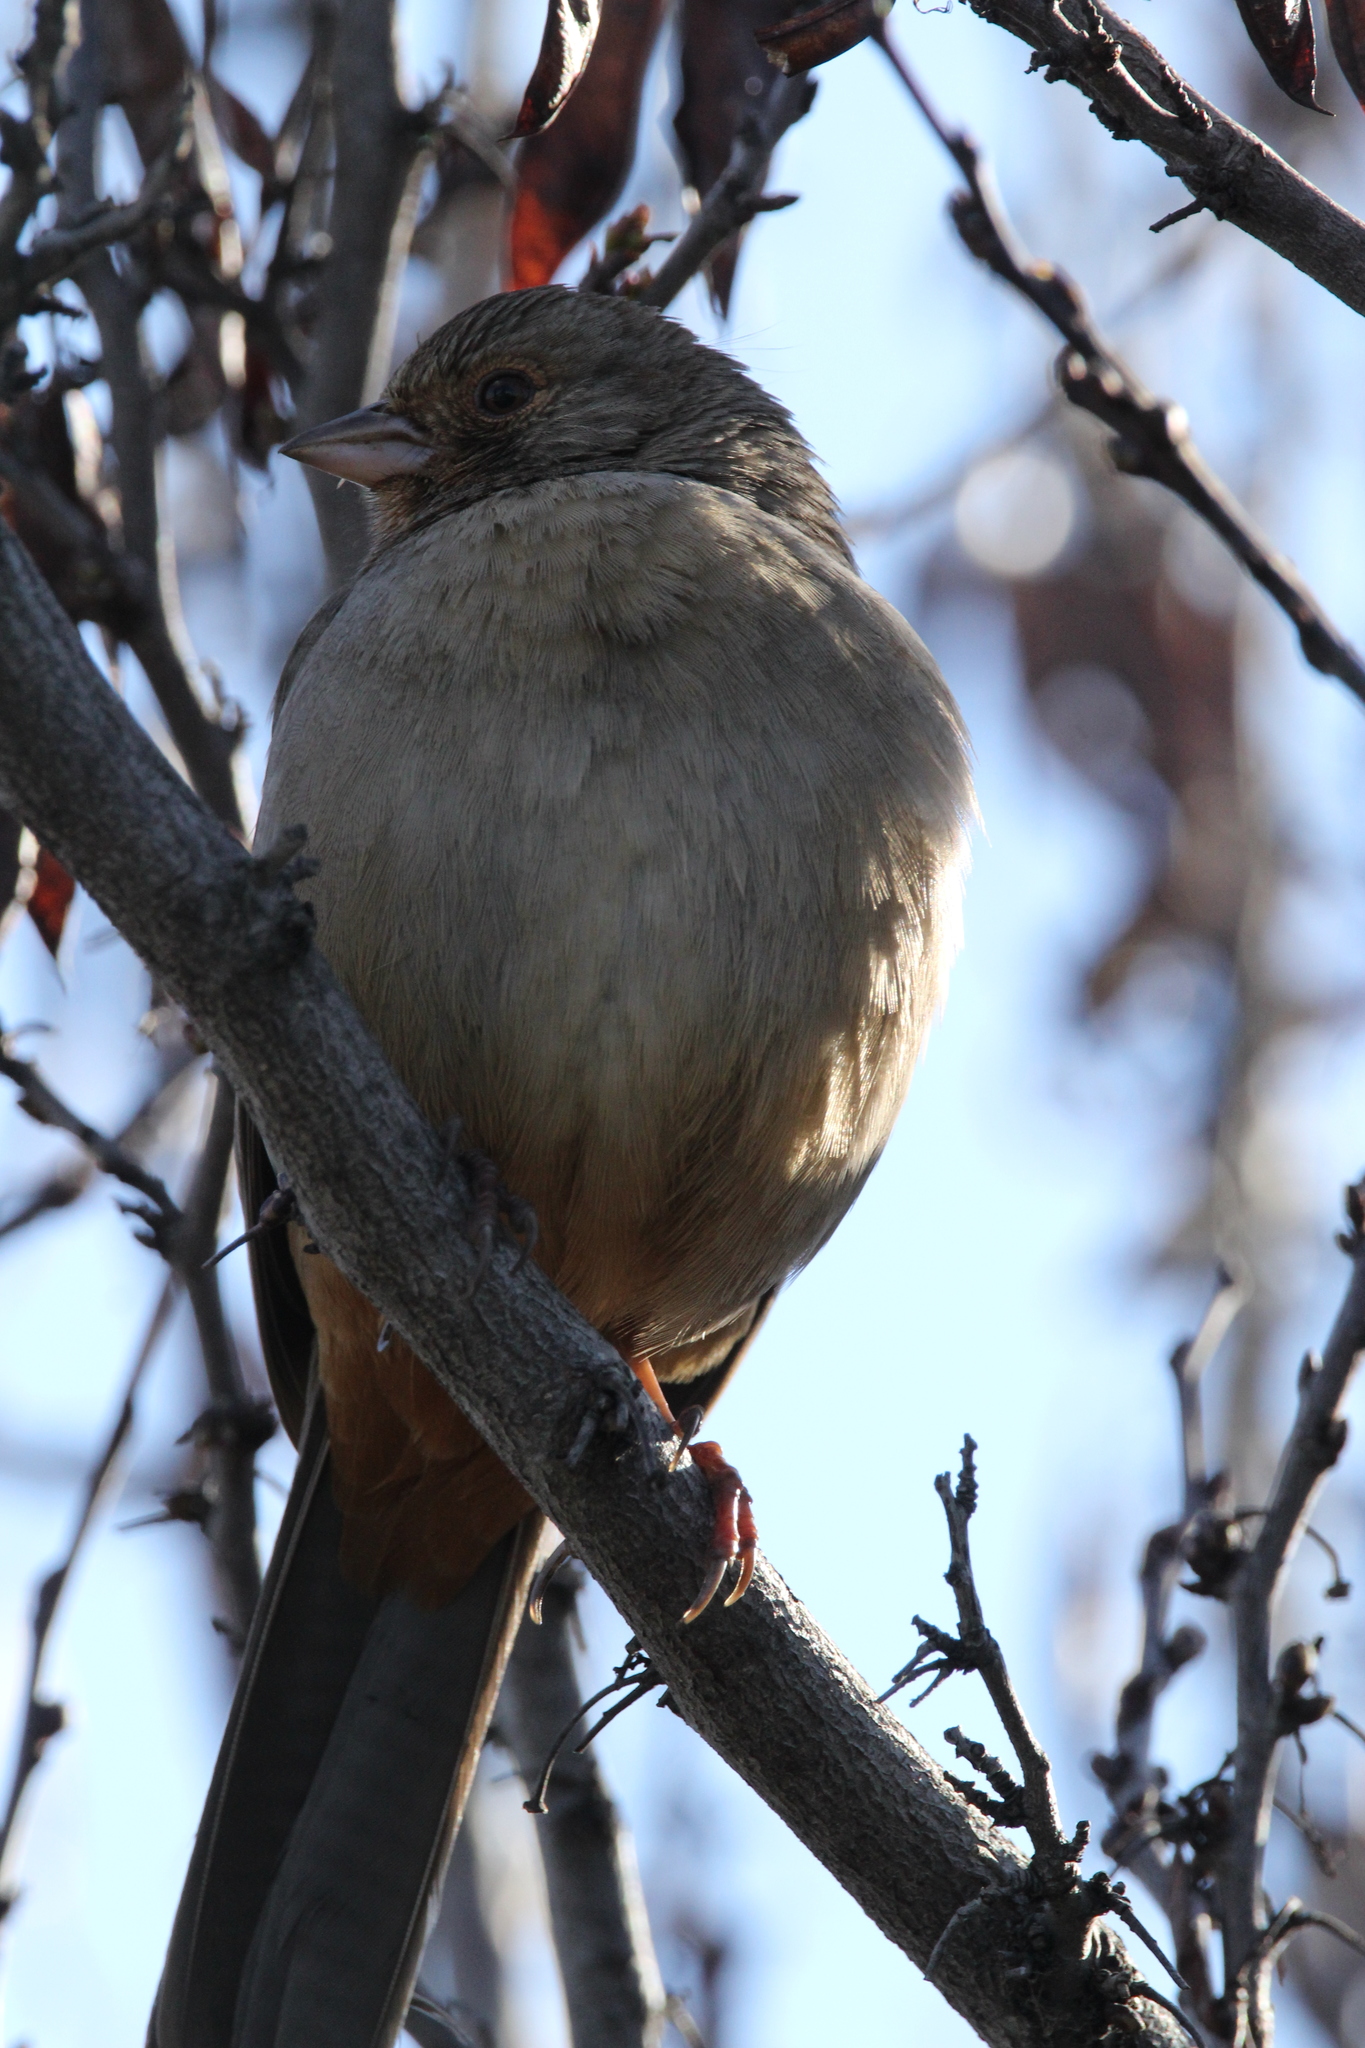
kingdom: Animalia
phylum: Chordata
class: Aves
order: Passeriformes
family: Passerellidae
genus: Melozone
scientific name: Melozone crissalis
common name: California towhee
